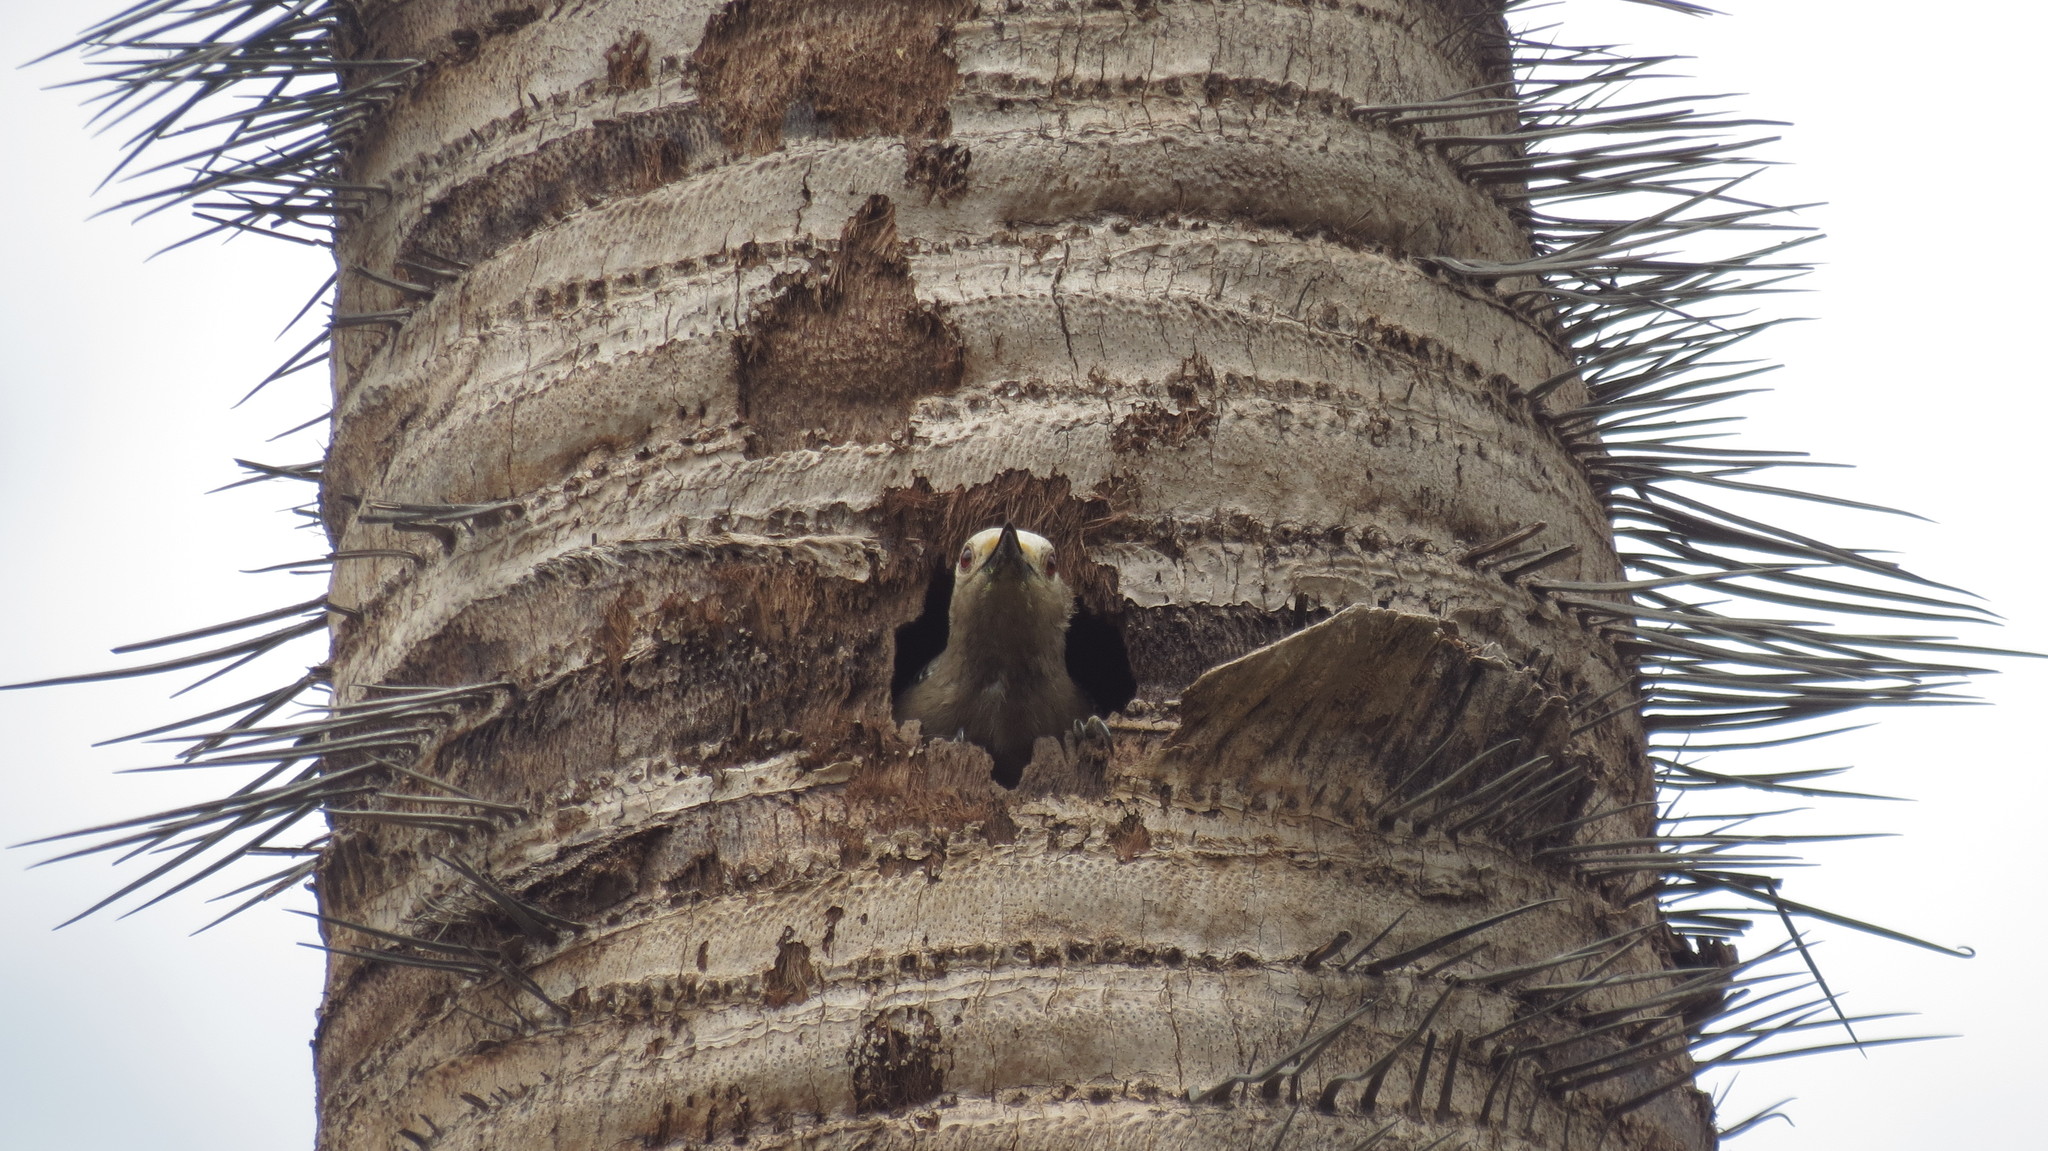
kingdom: Animalia
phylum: Chordata
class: Aves
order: Piciformes
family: Picidae
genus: Melanerpes
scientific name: Melanerpes aurifrons
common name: Golden-fronted woodpecker
